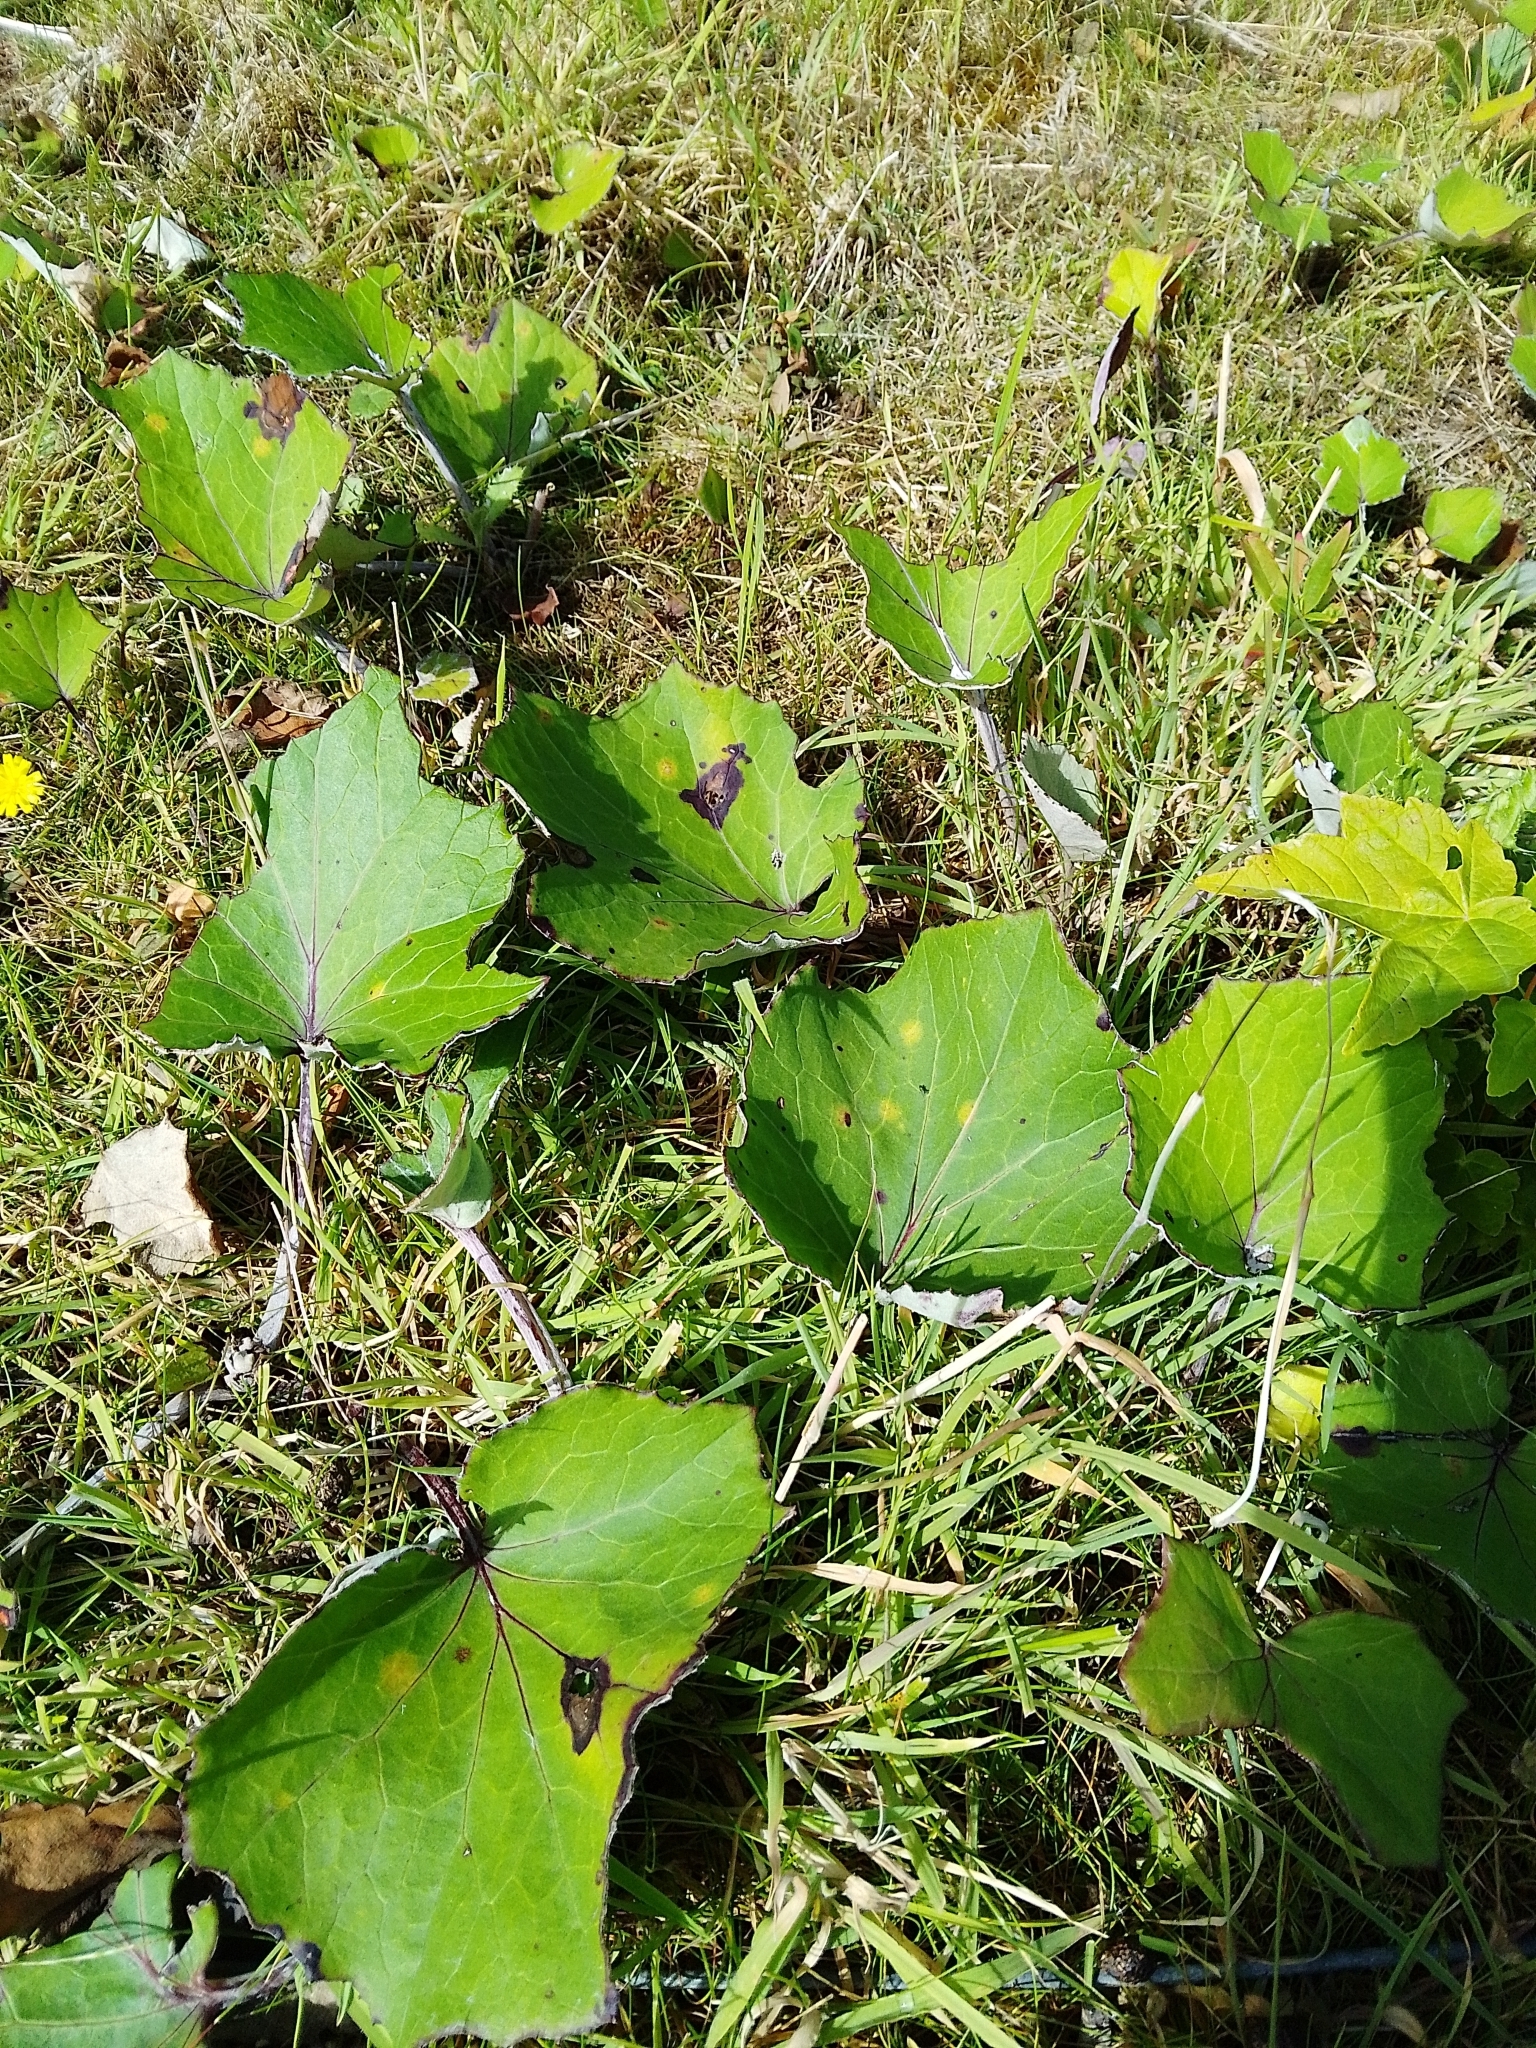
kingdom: Plantae
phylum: Tracheophyta
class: Magnoliopsida
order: Asterales
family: Asteraceae
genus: Tussilago
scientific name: Tussilago farfara
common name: Coltsfoot
